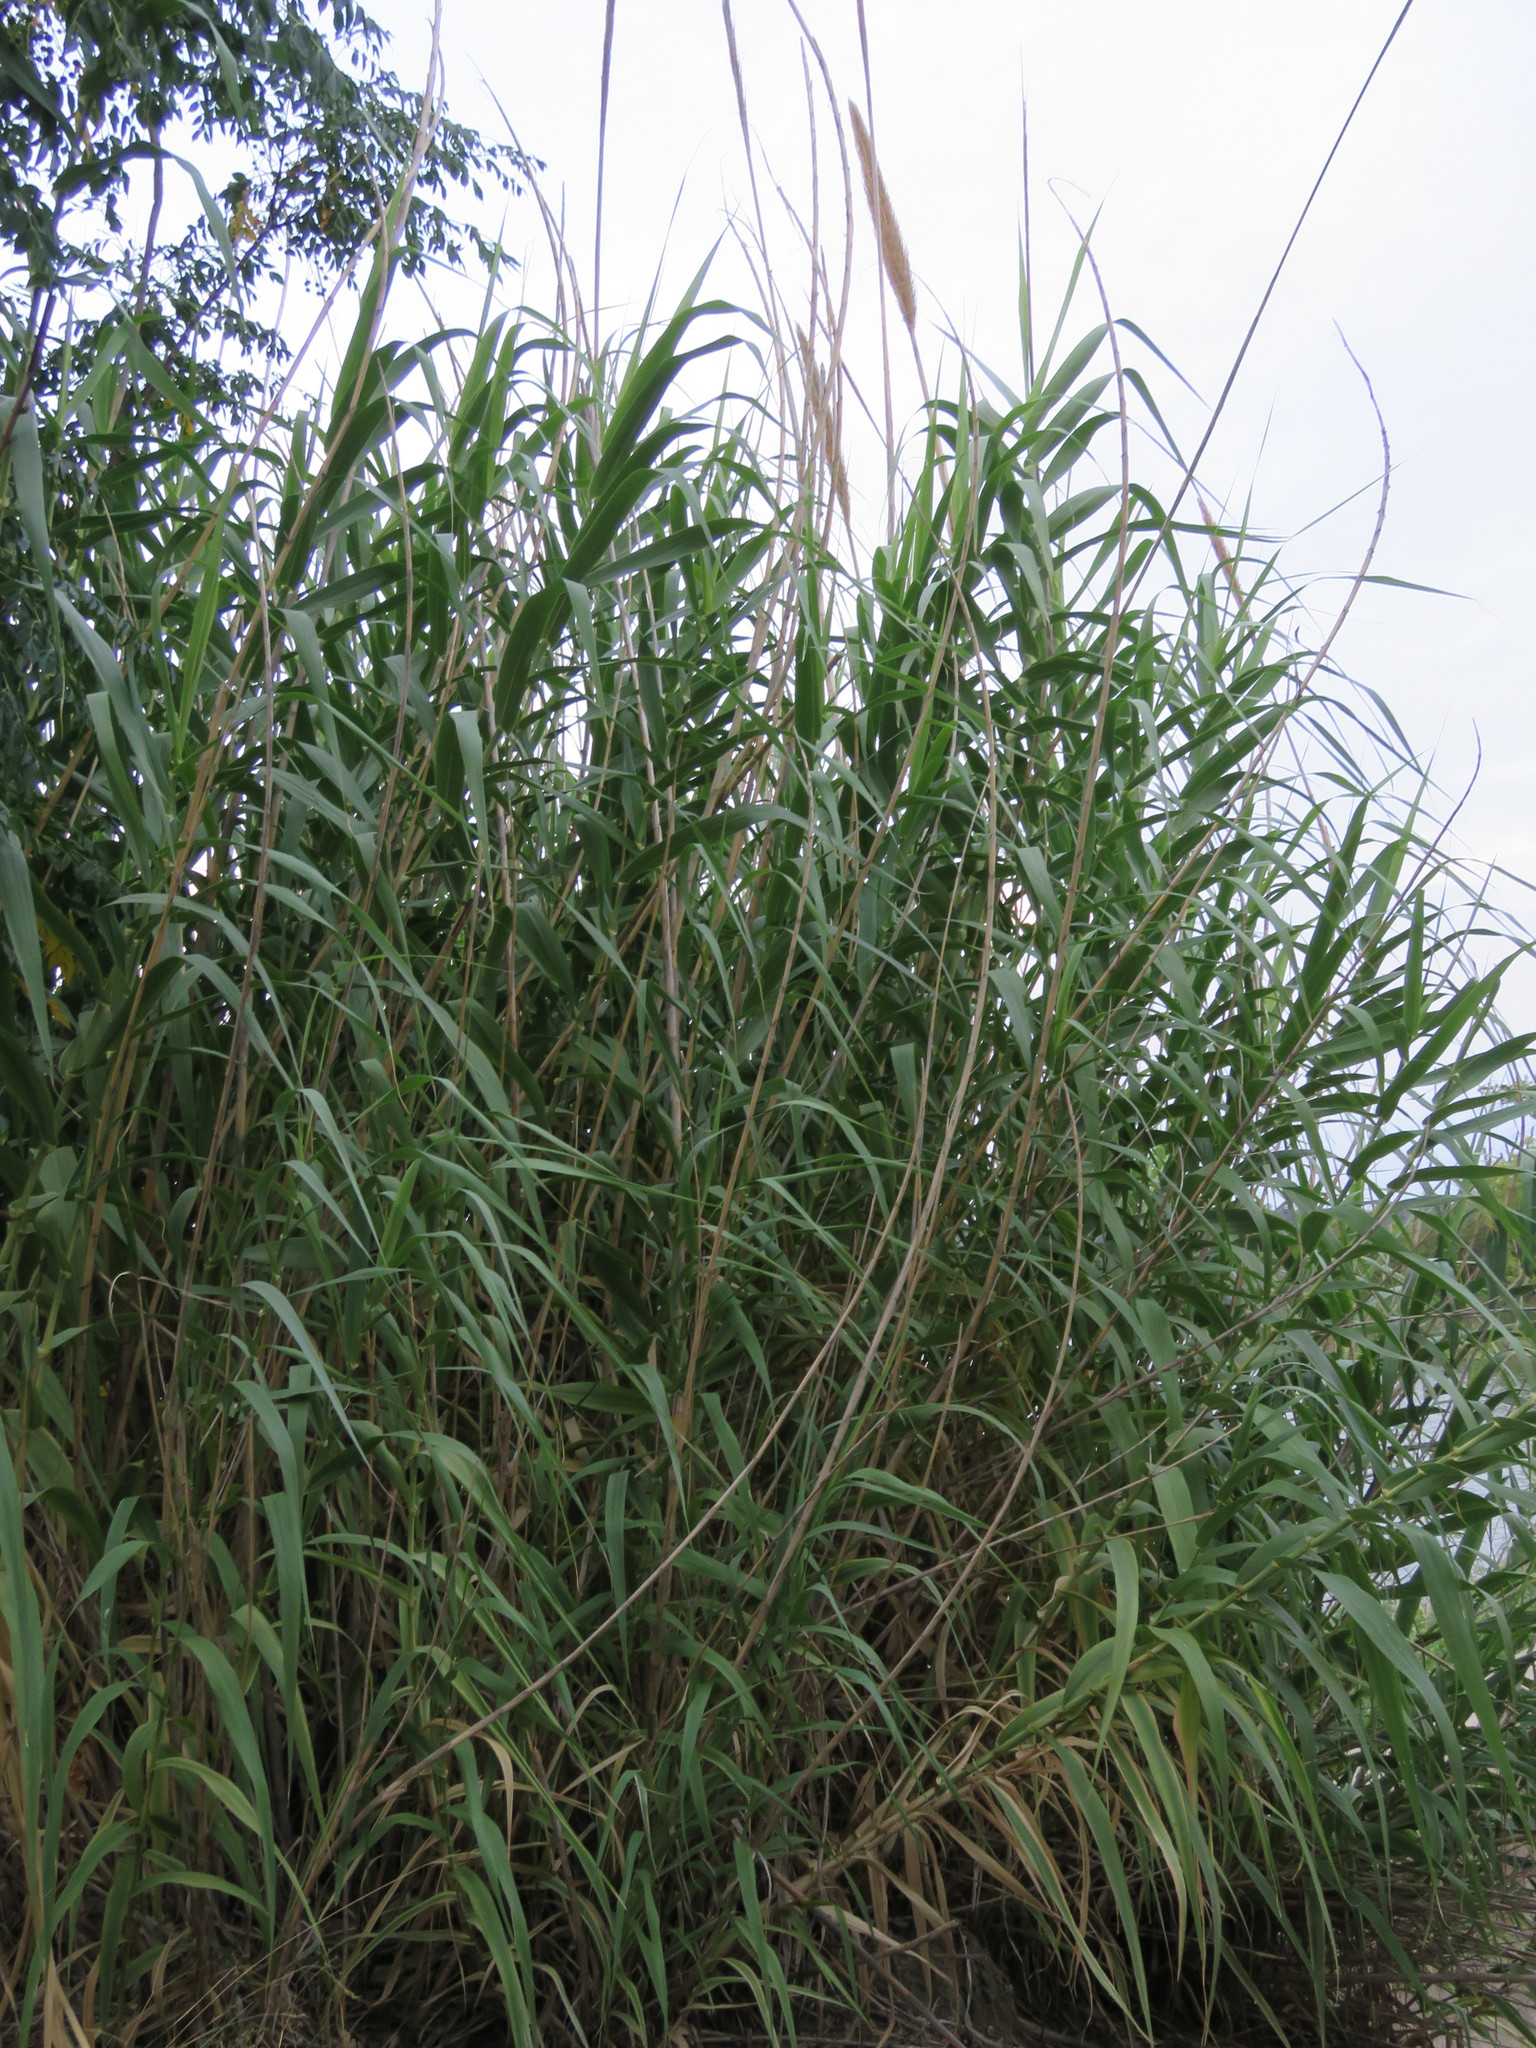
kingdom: Plantae
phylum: Tracheophyta
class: Liliopsida
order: Poales
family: Poaceae
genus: Arundo
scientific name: Arundo donax
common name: Giant reed
